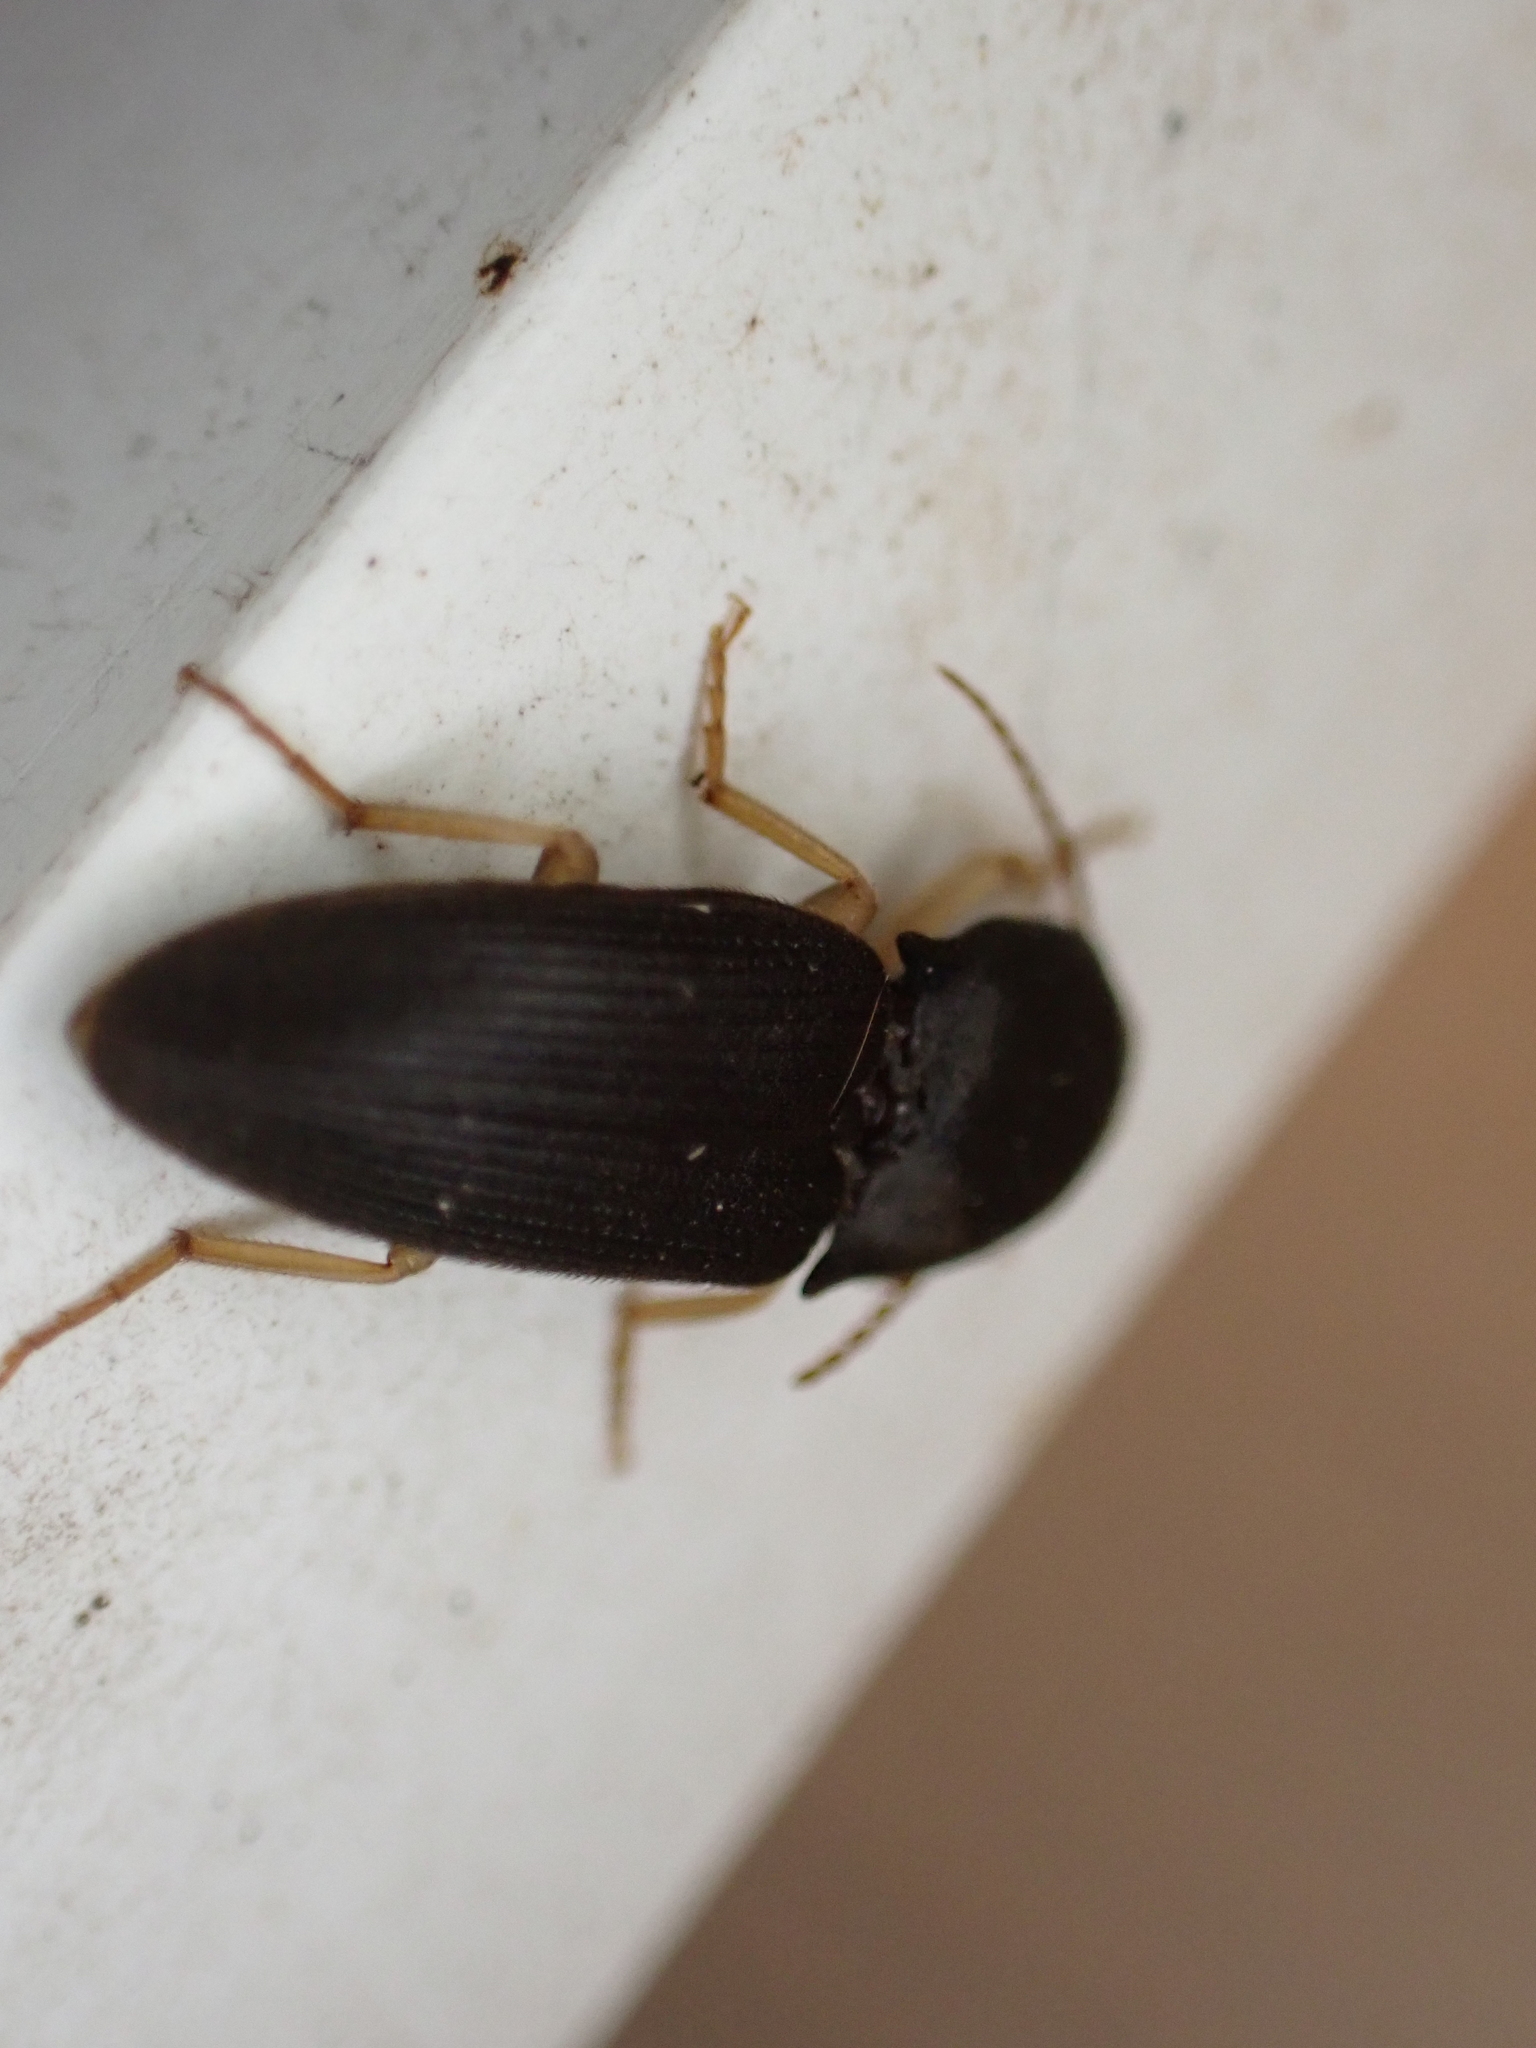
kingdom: Animalia
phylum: Arthropoda
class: Insecta
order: Coleoptera
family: Elateridae
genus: Heteroderes
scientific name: Heteroderes amplicollis
